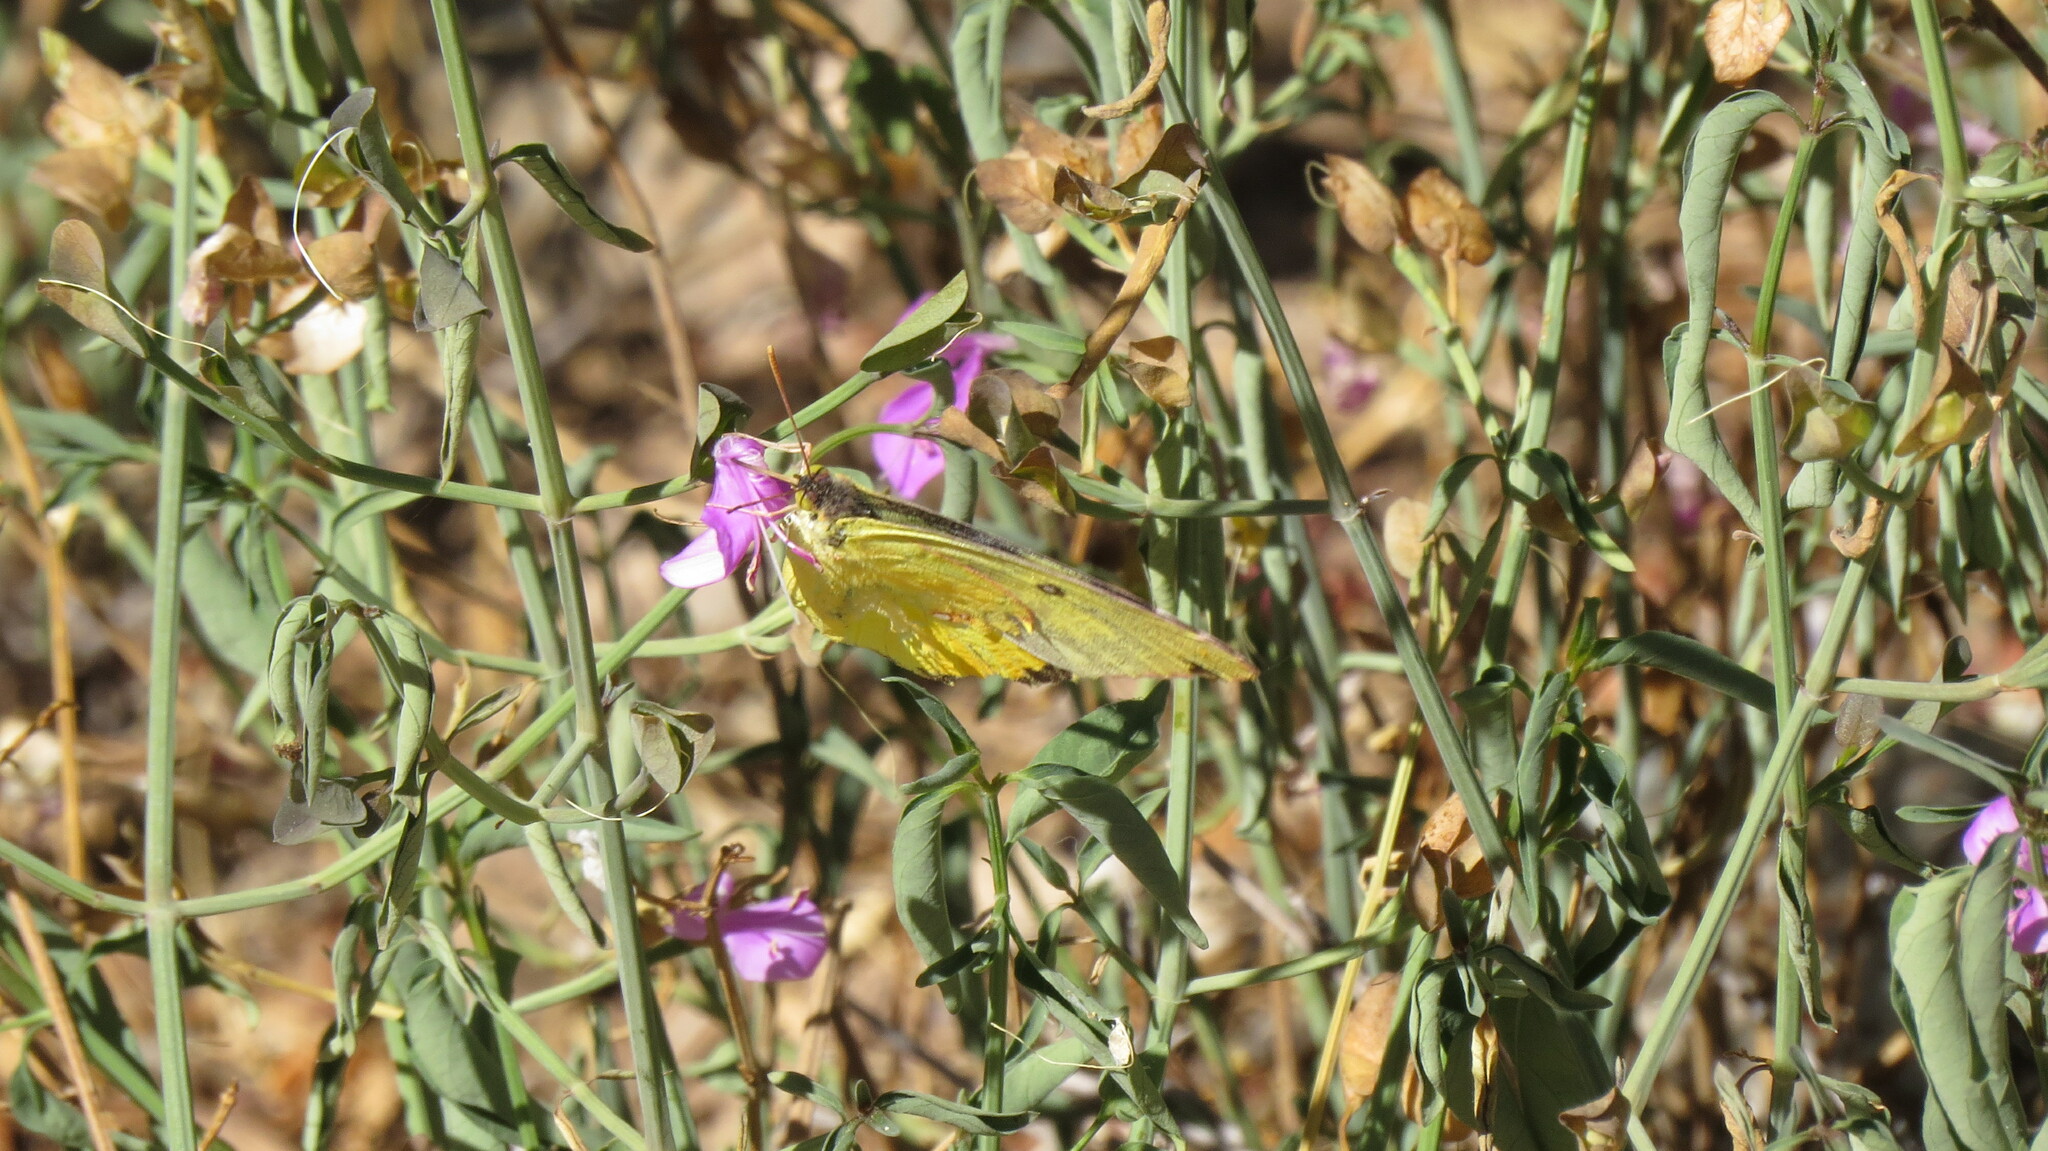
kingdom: Animalia
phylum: Arthropoda
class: Insecta
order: Lepidoptera
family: Pieridae
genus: Zerene
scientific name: Zerene cesonia
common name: Southern dogface
